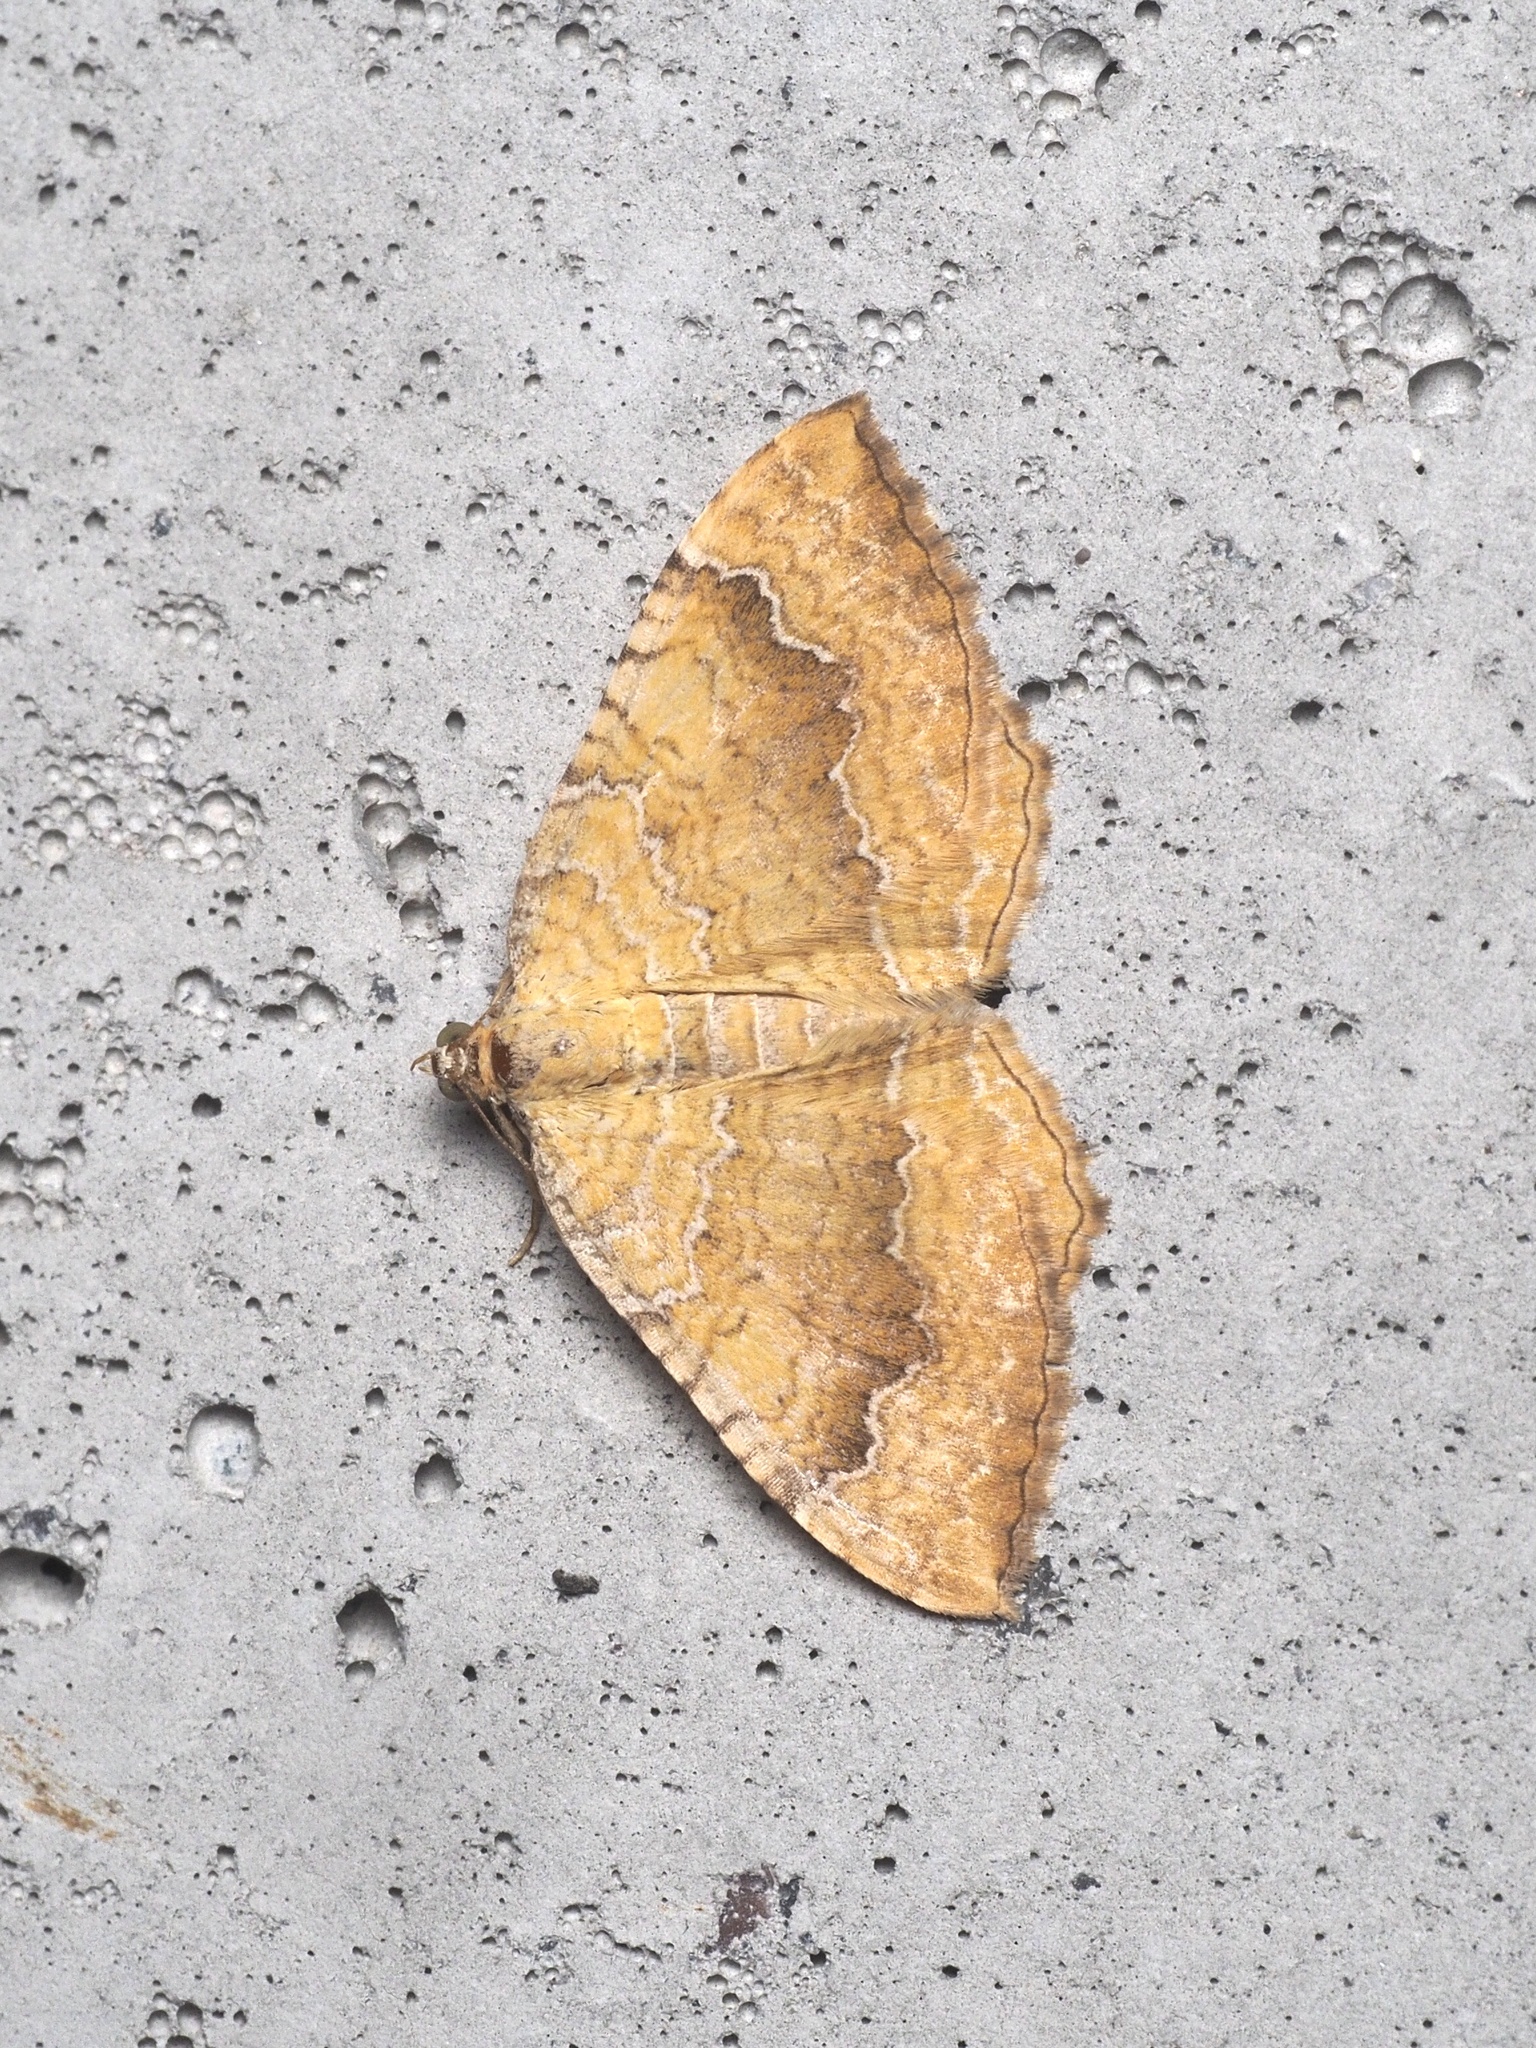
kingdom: Animalia
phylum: Arthropoda
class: Insecta
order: Lepidoptera
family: Geometridae
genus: Camptogramma
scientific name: Camptogramma bilineata
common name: Yellow shell
